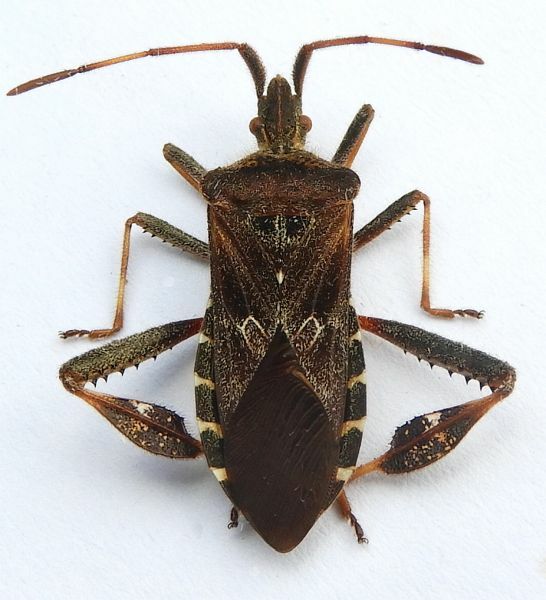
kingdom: Animalia
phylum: Arthropoda
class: Insecta
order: Hemiptera
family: Coreidae
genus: Leptoglossus
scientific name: Leptoglossus corculus
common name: Southern pine seed bug
